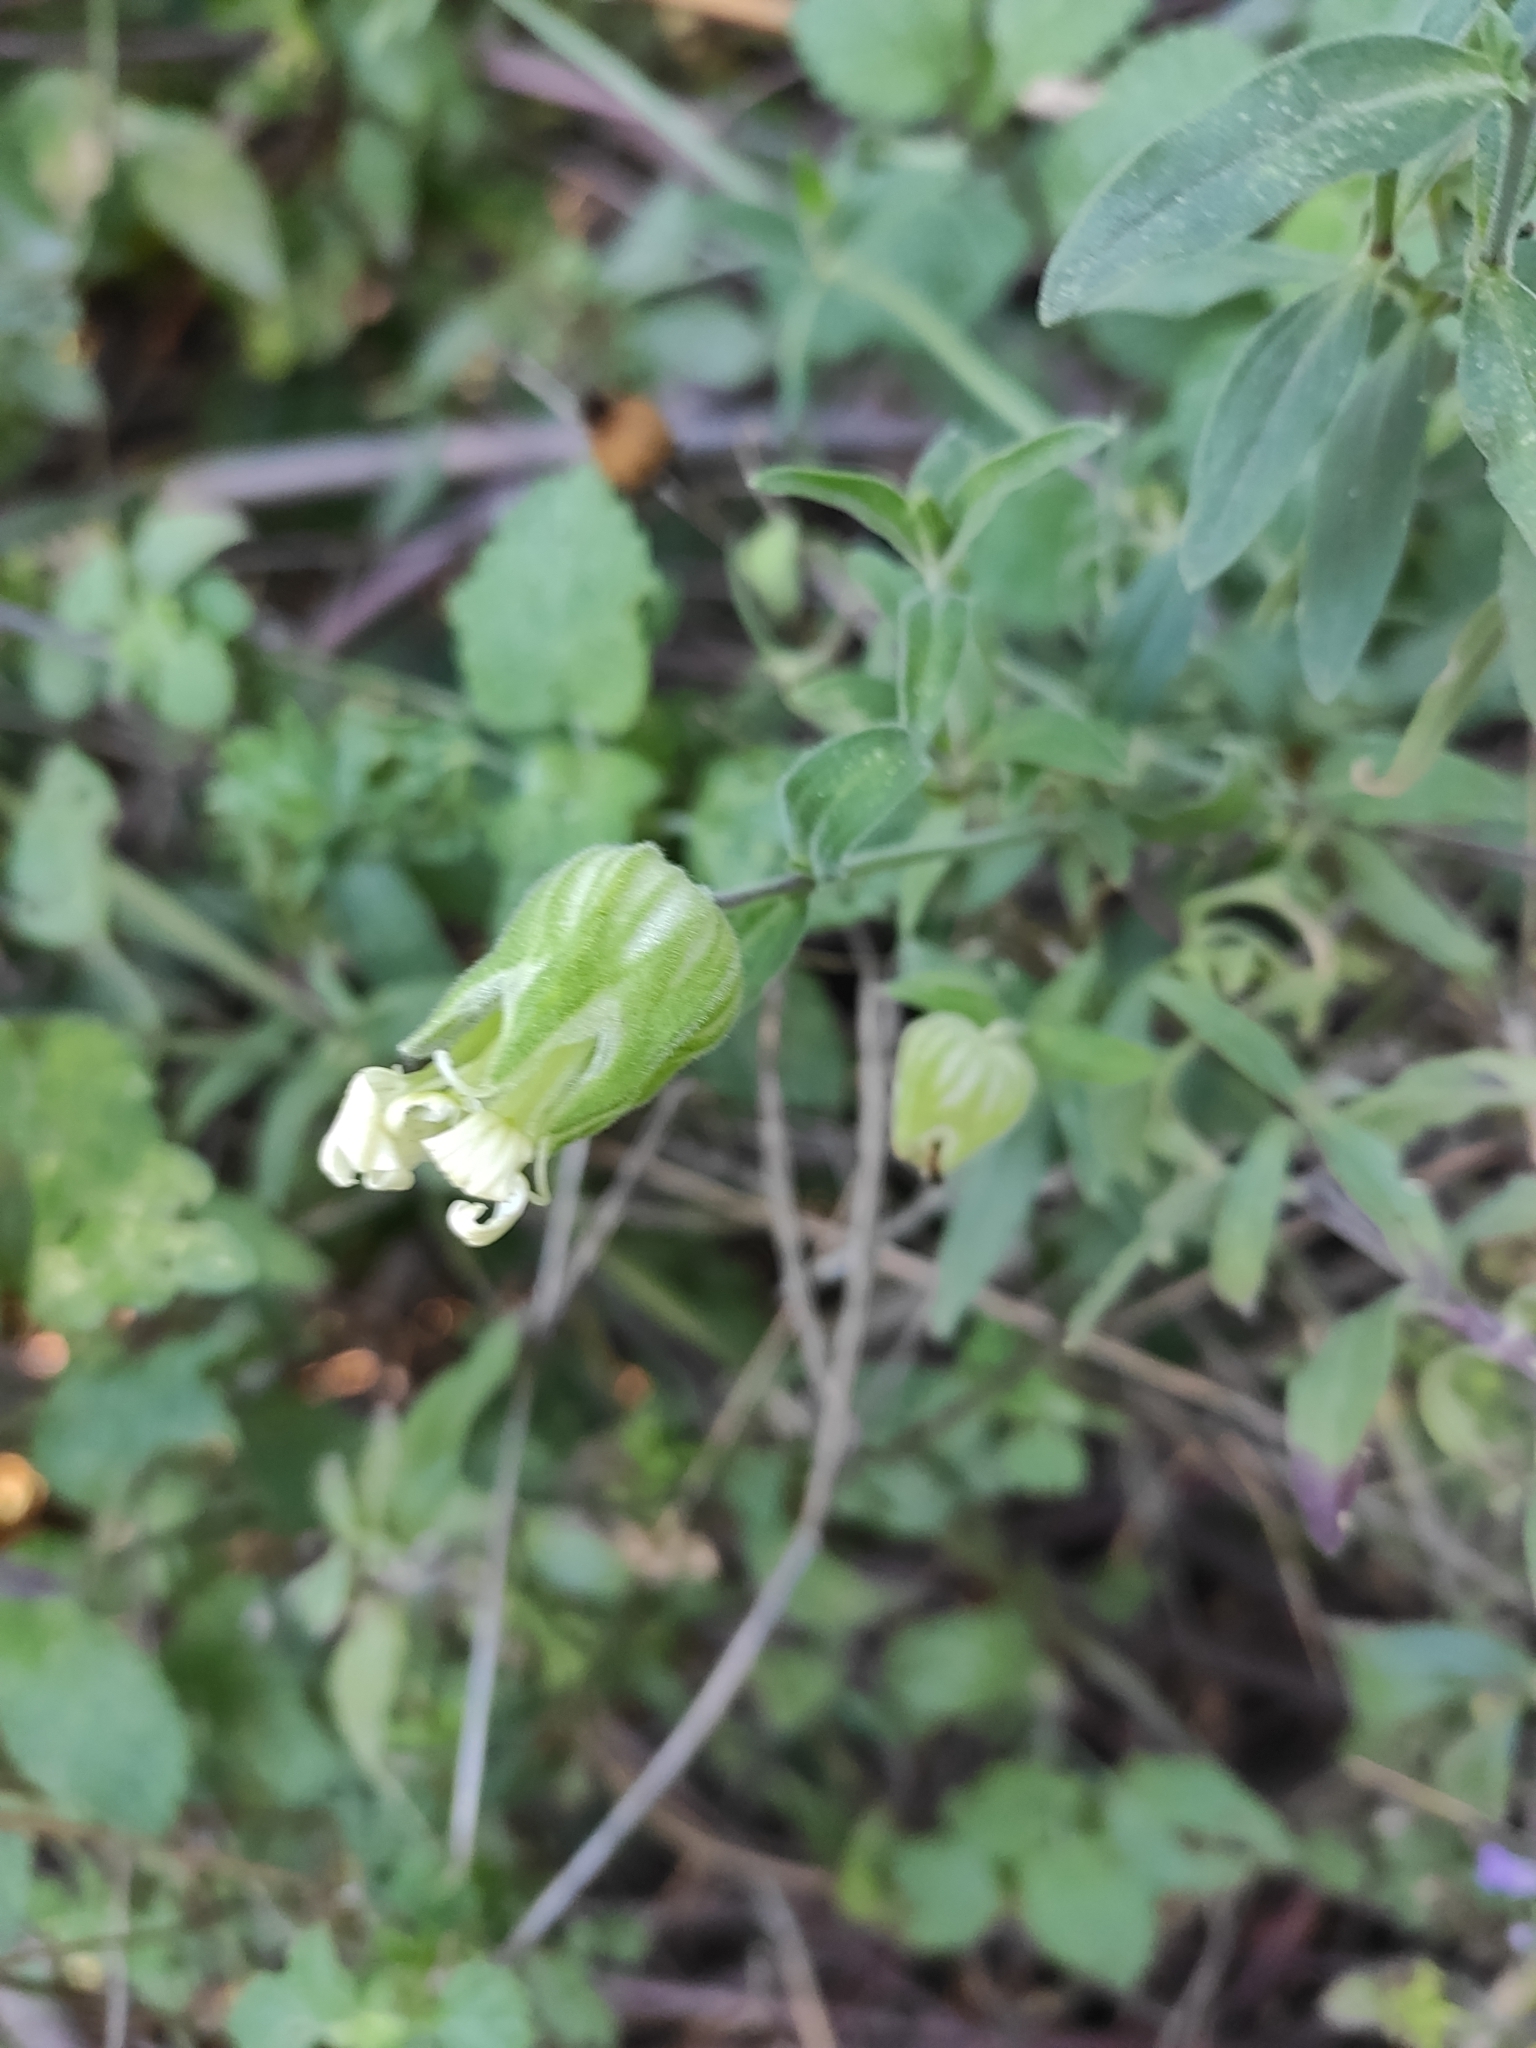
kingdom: Plantae
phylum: Tracheophyta
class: Magnoliopsida
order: Caryophyllales
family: Caryophyllaceae
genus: Silene
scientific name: Silene latifolia
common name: White campion
